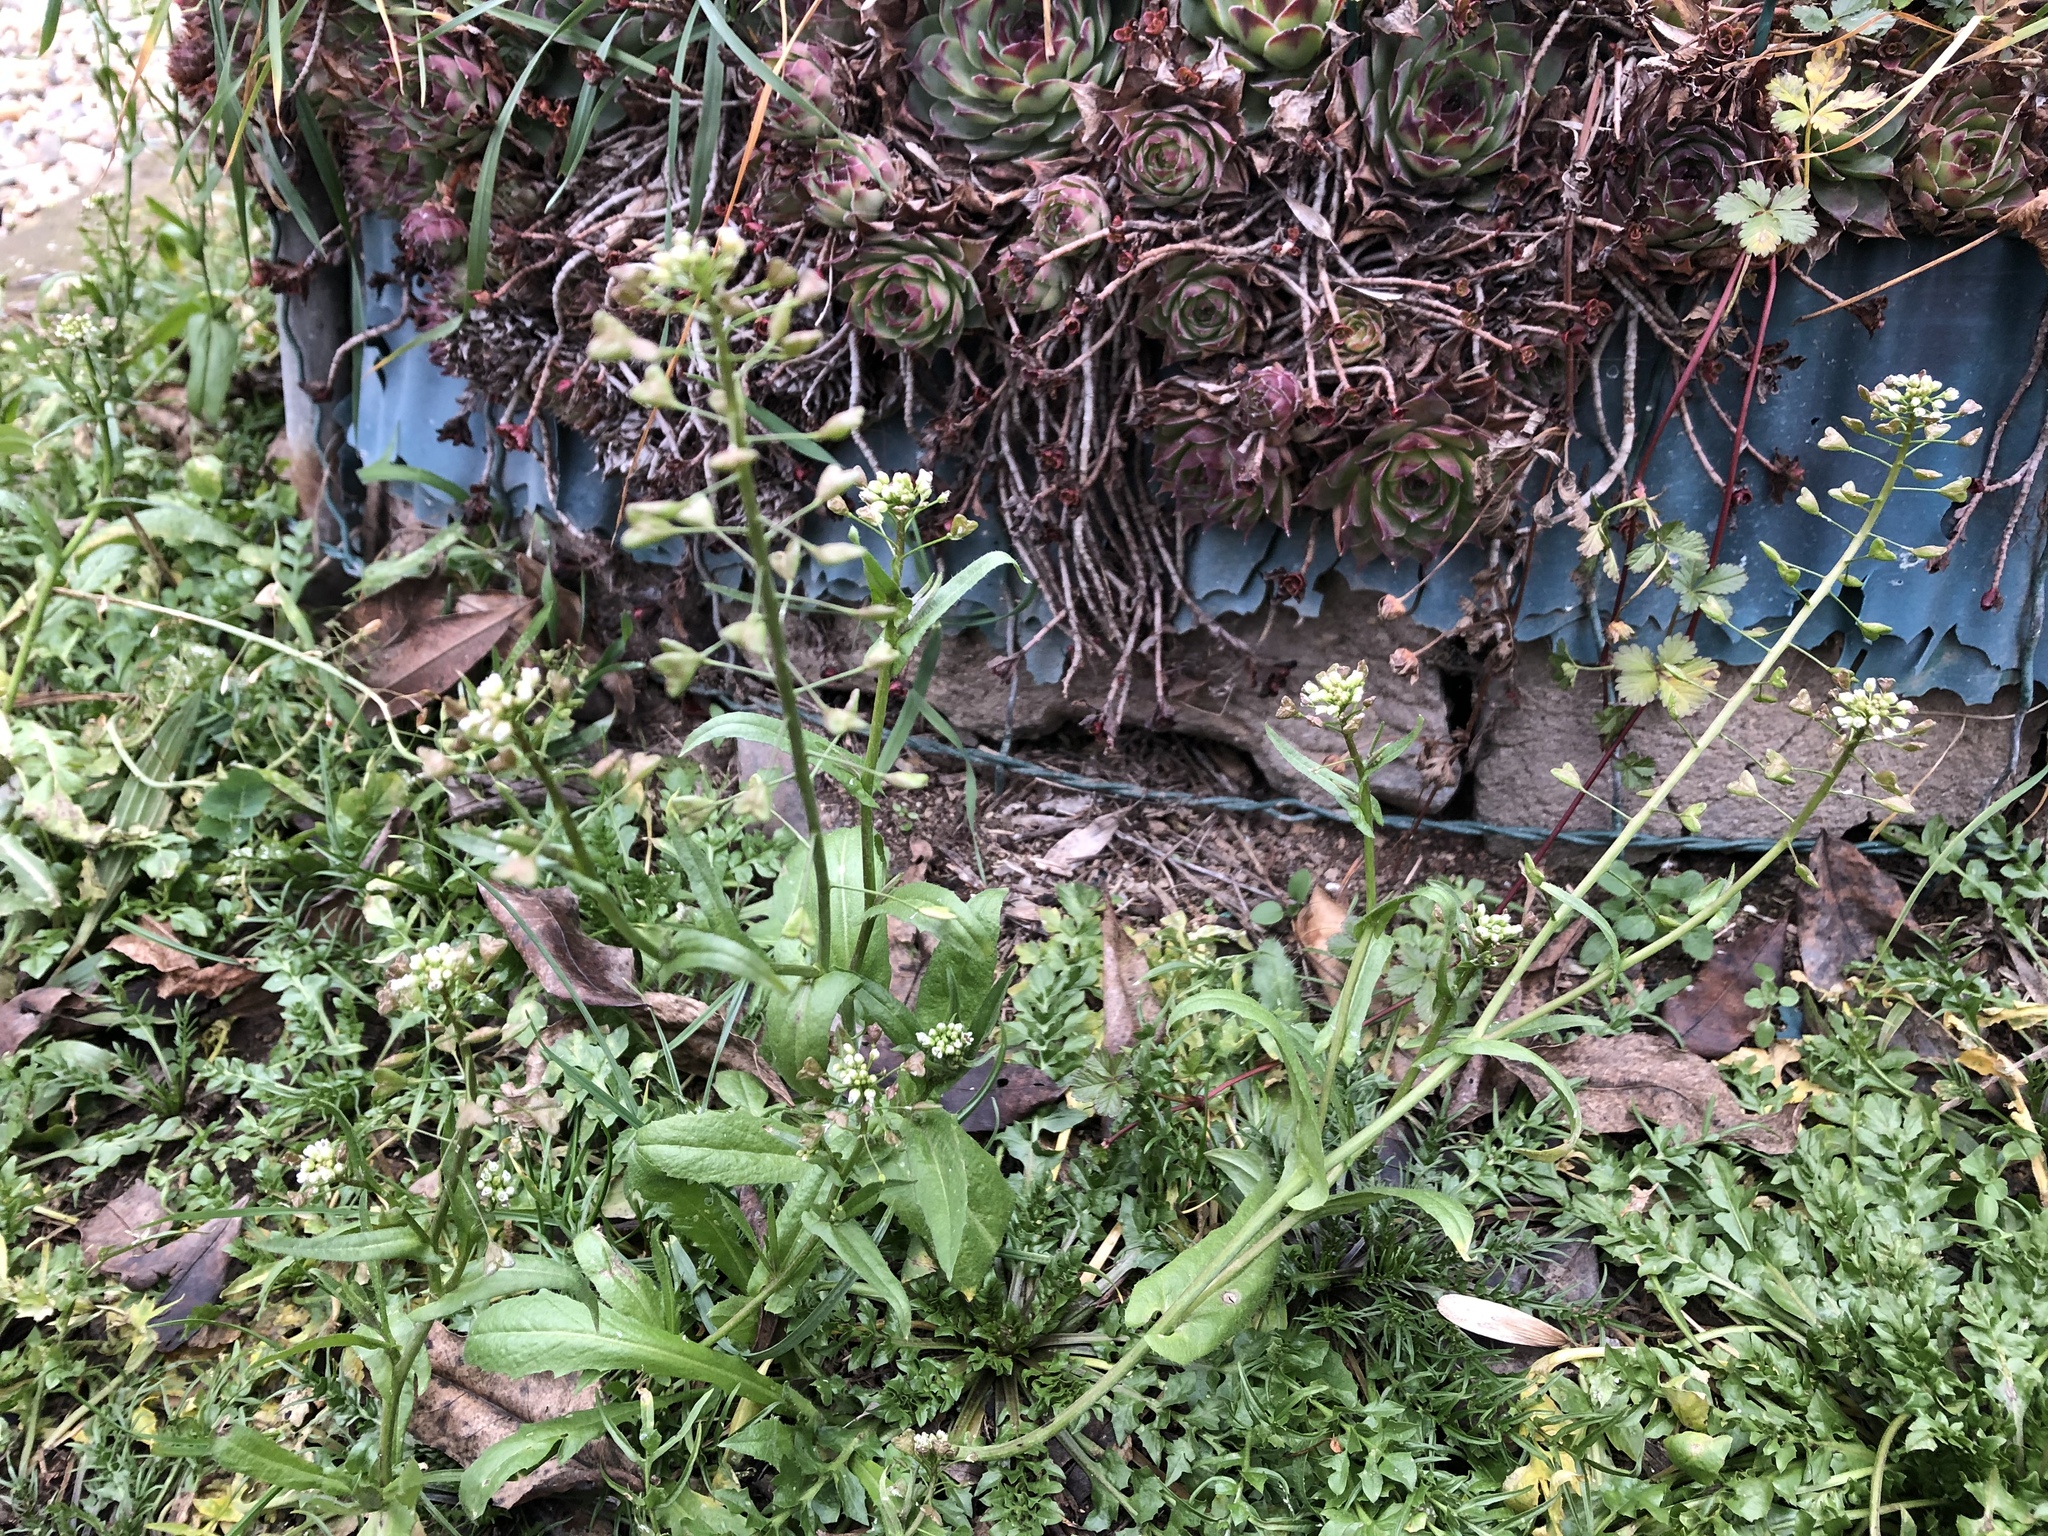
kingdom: Plantae
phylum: Tracheophyta
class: Magnoliopsida
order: Brassicales
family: Brassicaceae
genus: Capsella
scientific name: Capsella bursa-pastoris
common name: Shepherd's purse
